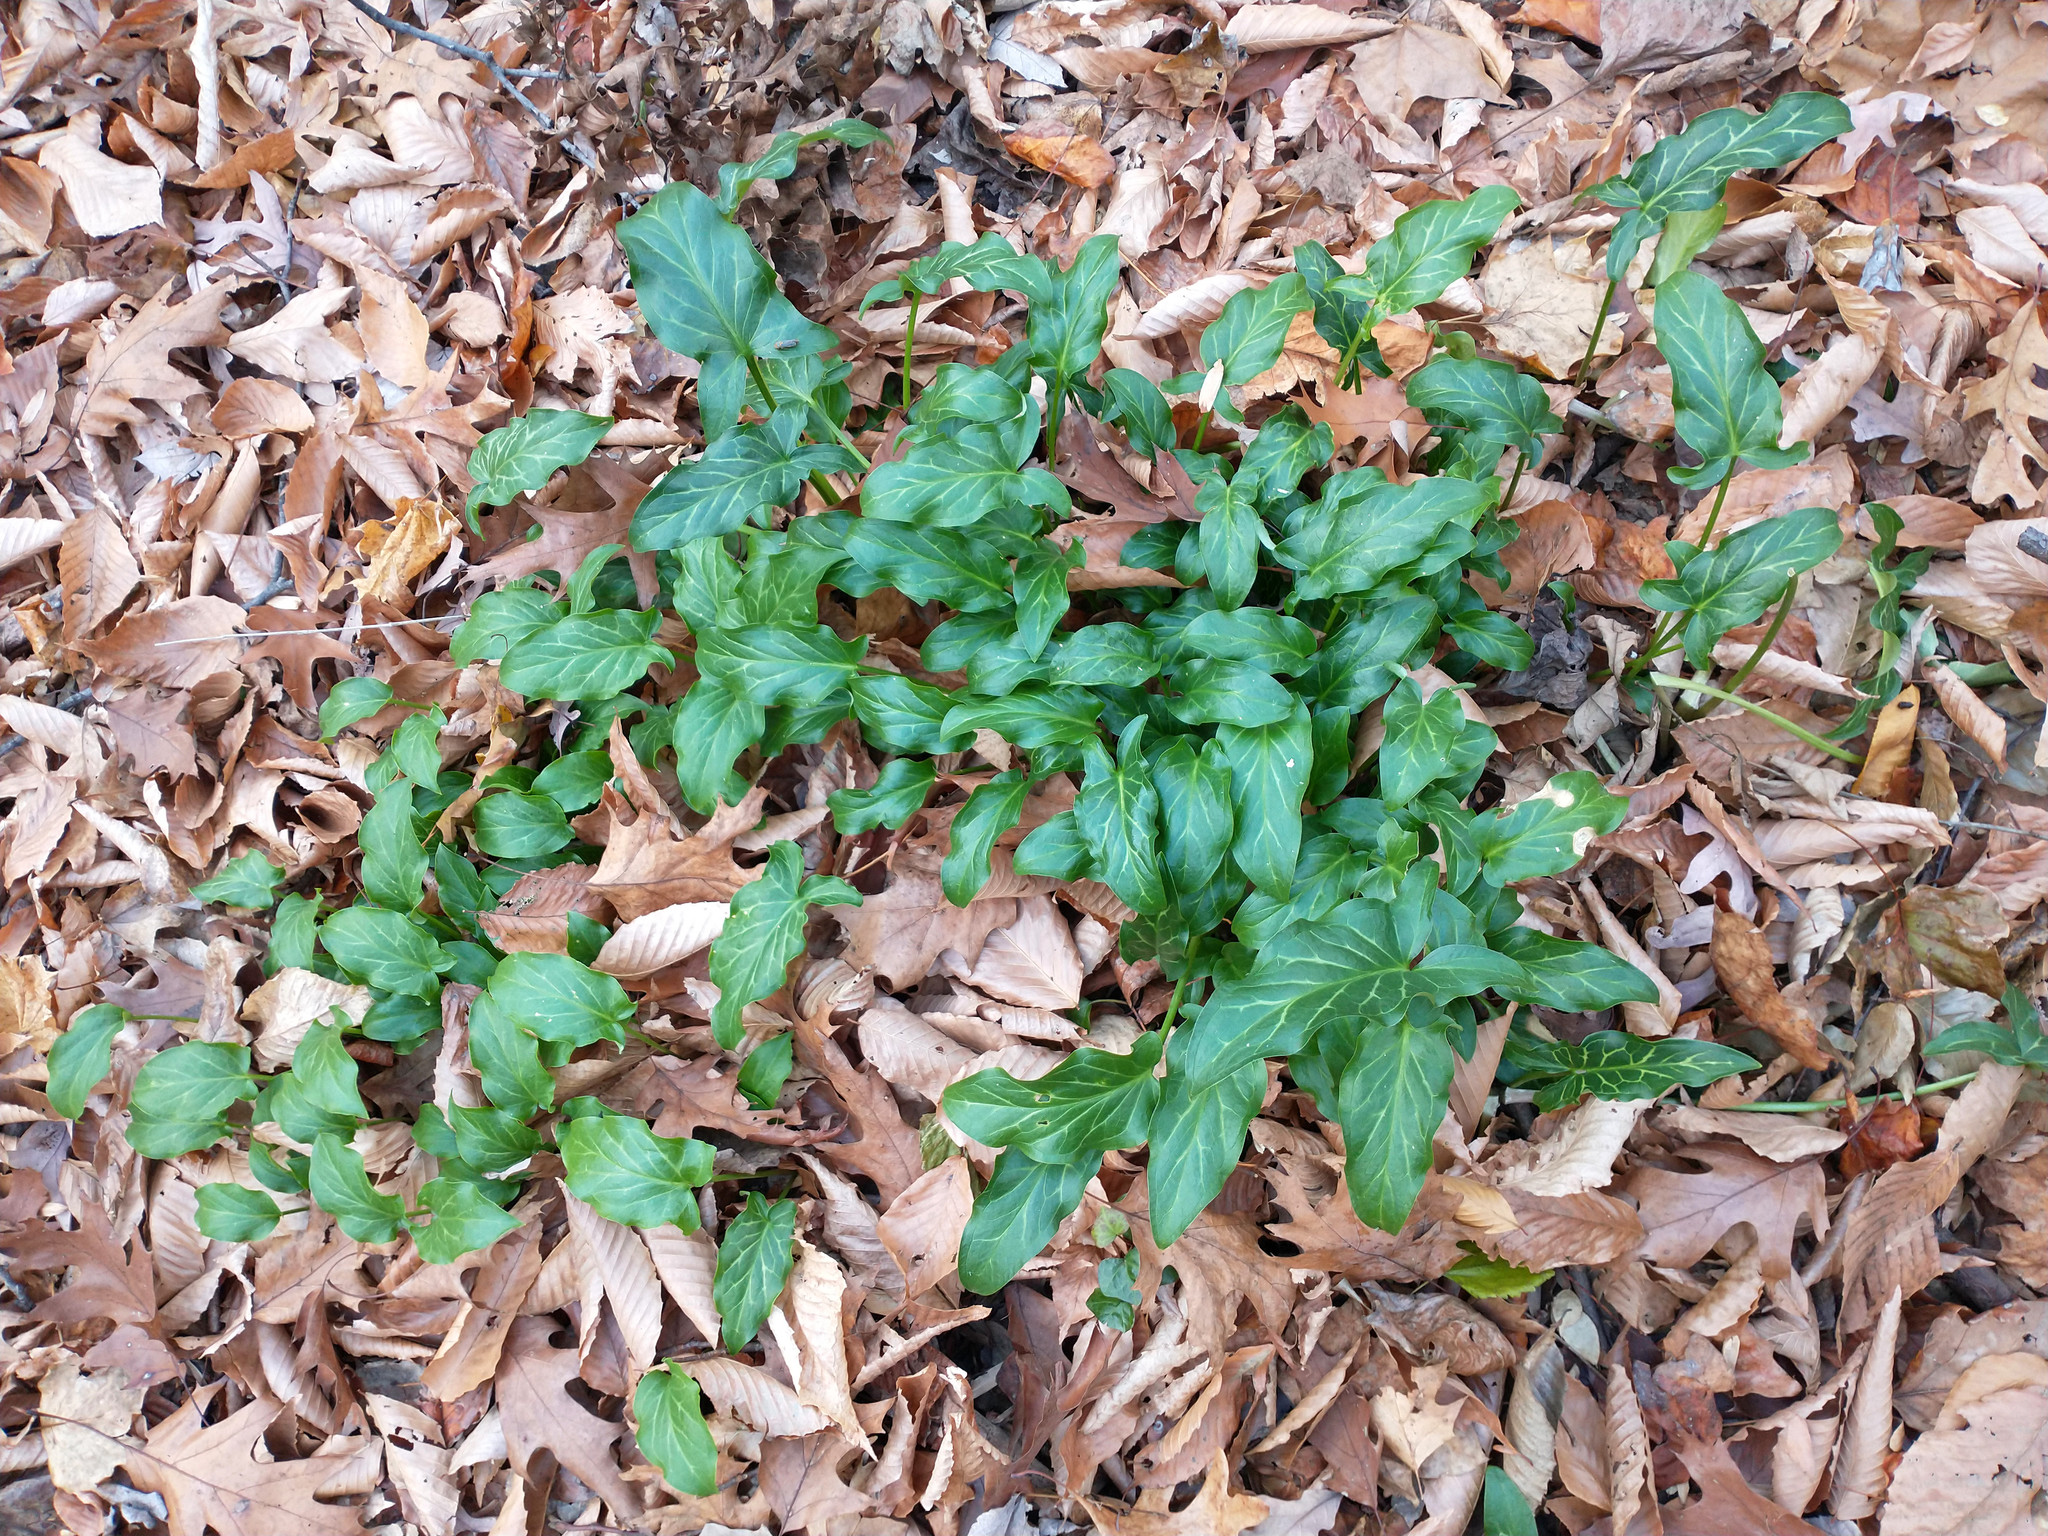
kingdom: Plantae
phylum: Tracheophyta
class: Liliopsida
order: Alismatales
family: Araceae
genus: Arum
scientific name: Arum italicum
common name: Italian lords-and-ladies
